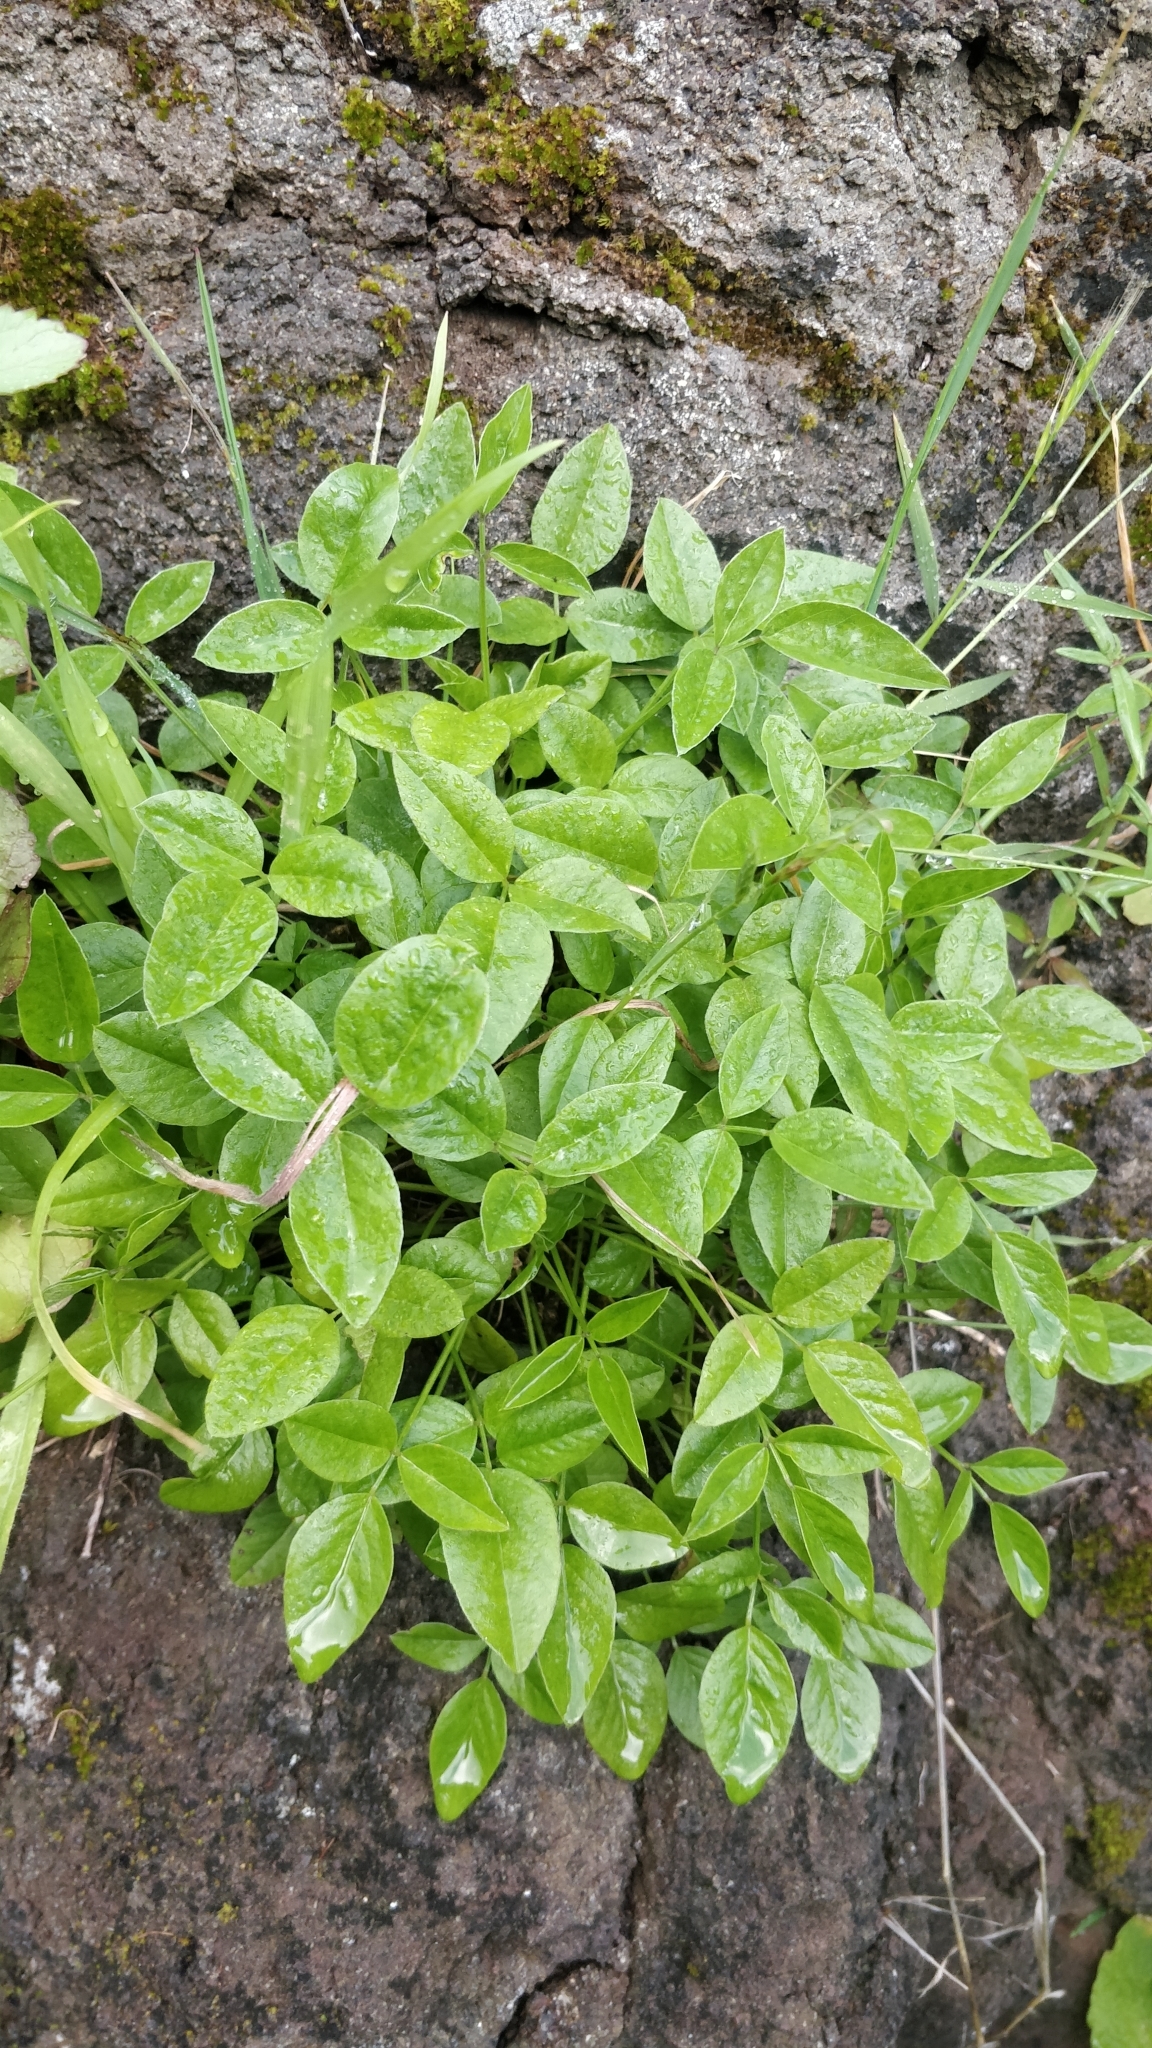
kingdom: Plantae
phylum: Tracheophyta
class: Magnoliopsida
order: Fabales
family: Fabaceae
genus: Bituminaria
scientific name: Bituminaria bituminosa
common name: Arabian pea
